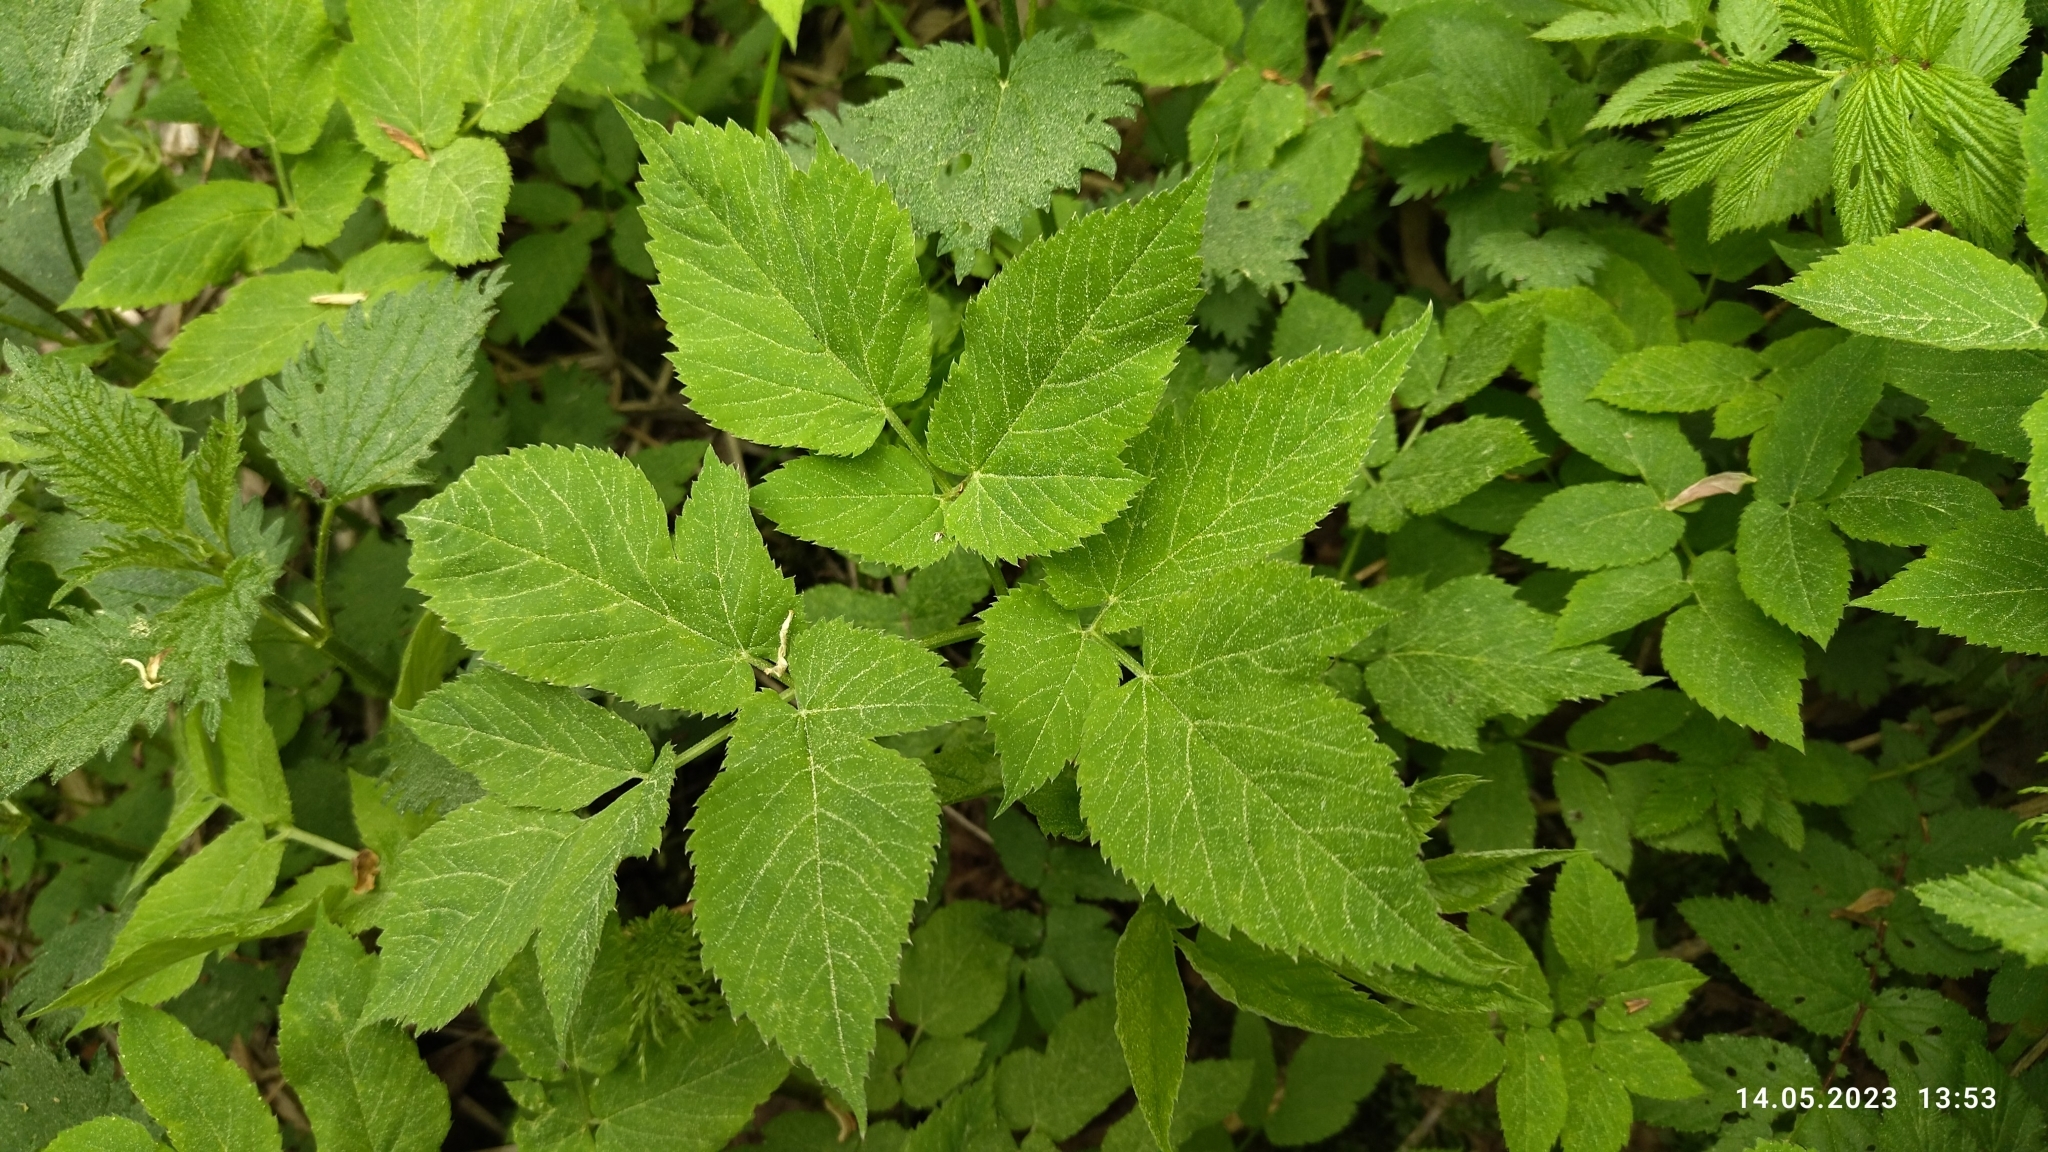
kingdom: Plantae
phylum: Tracheophyta
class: Magnoliopsida
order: Apiales
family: Apiaceae
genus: Aegopodium
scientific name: Aegopodium podagraria
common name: Ground-elder
